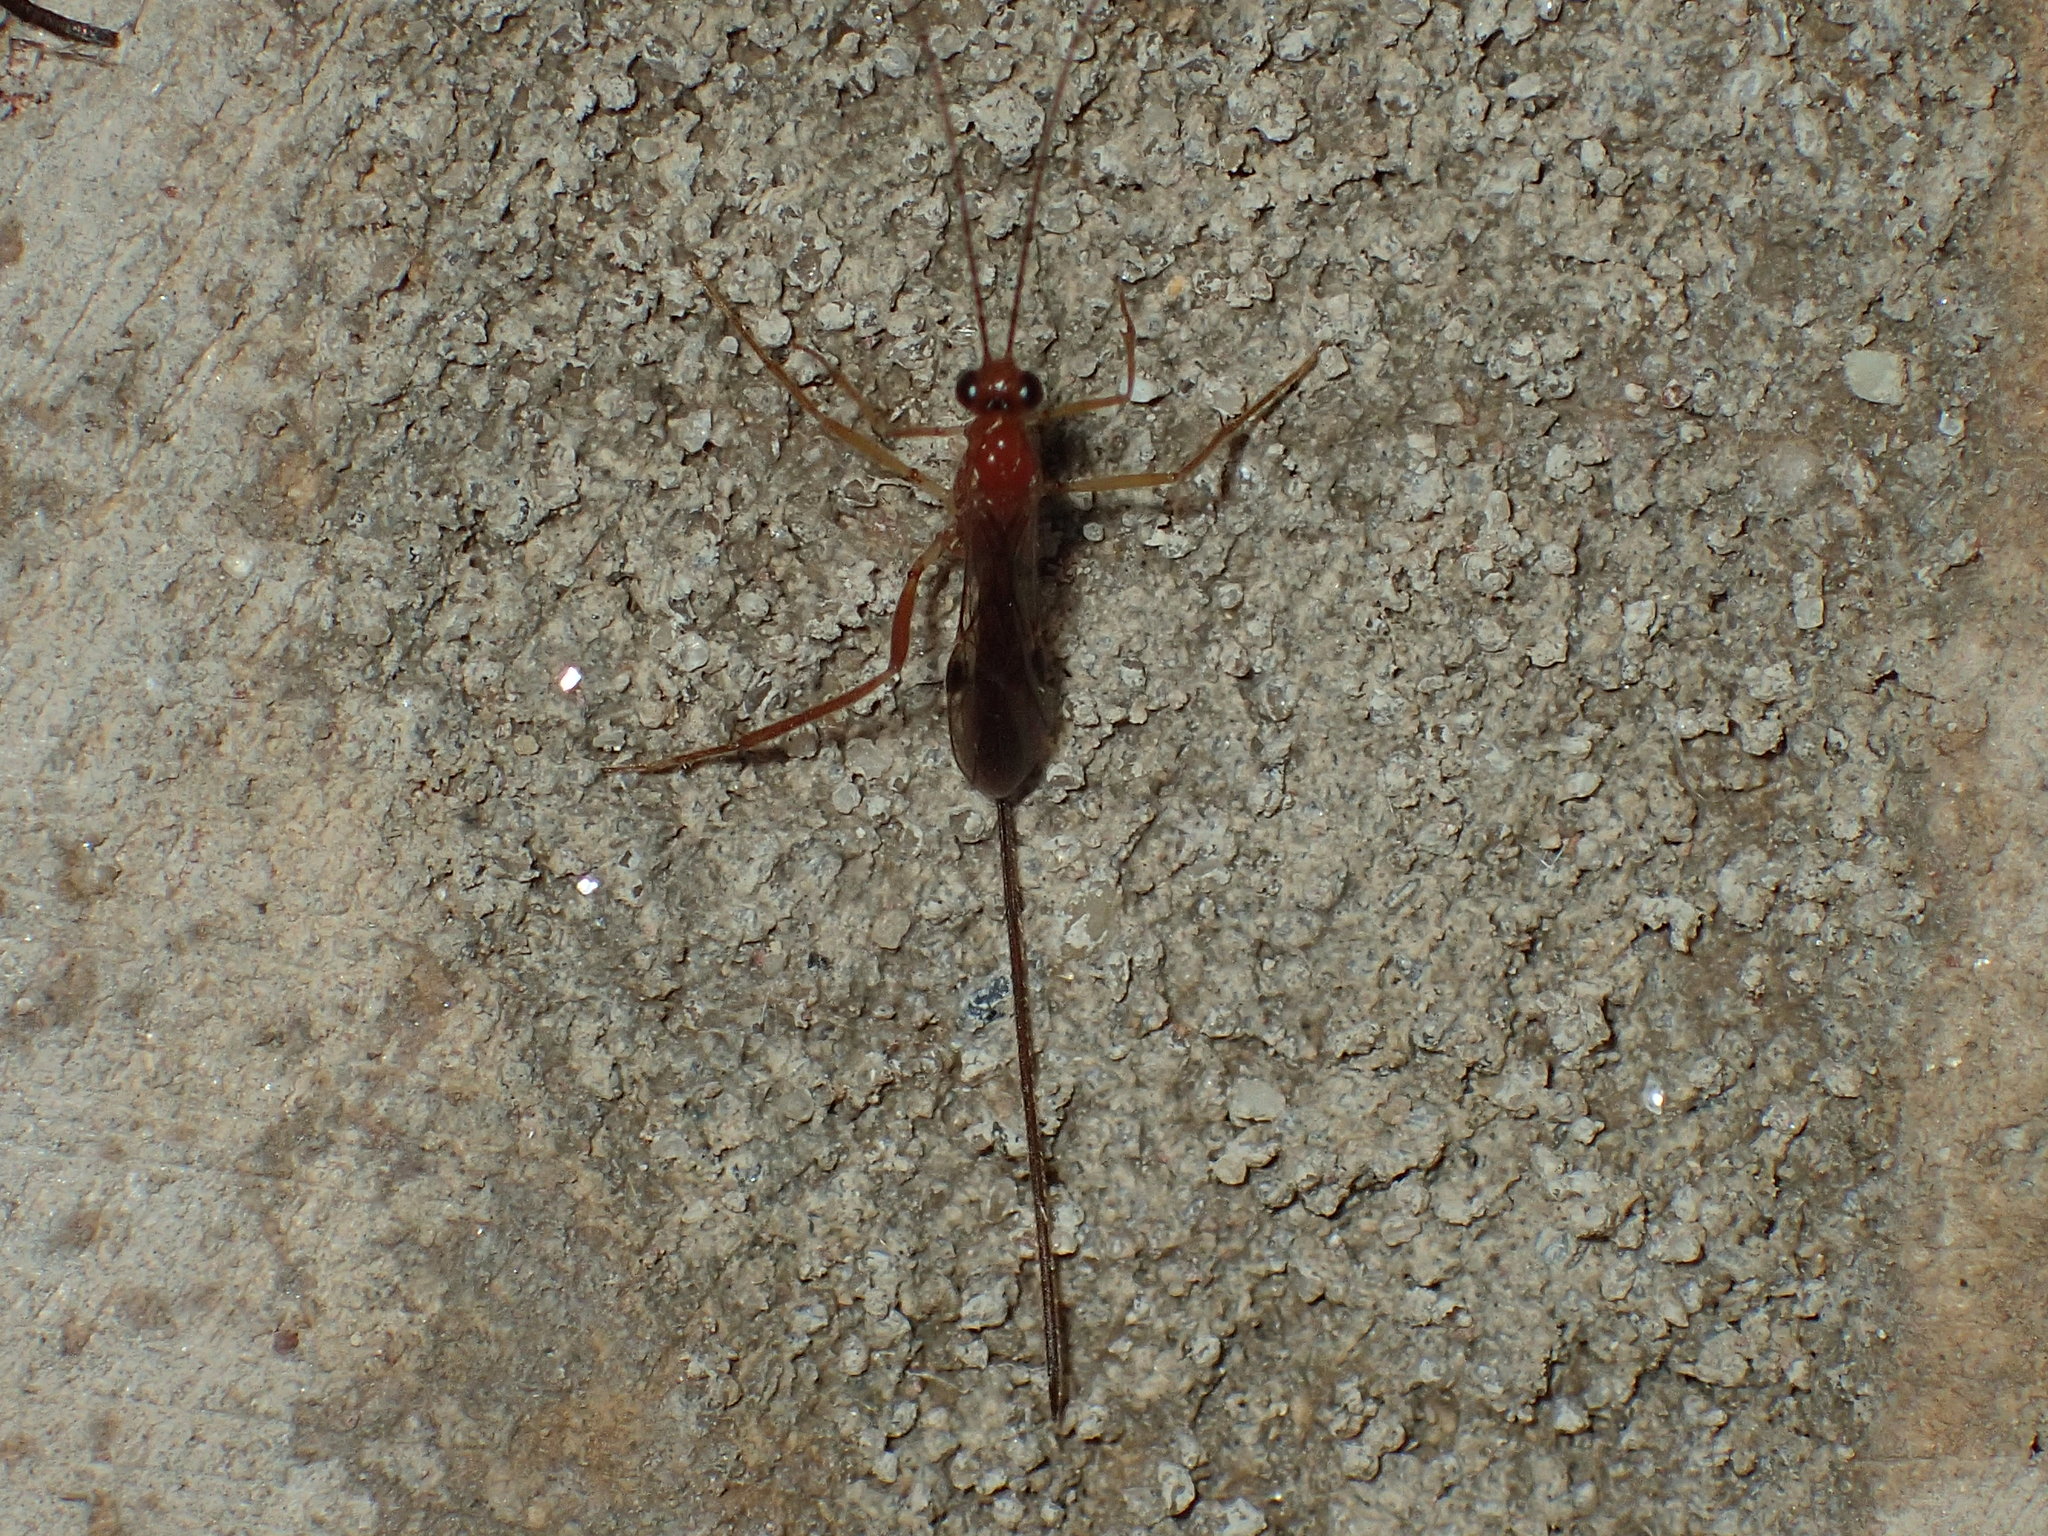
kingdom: Animalia
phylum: Arthropoda
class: Insecta
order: Hymenoptera
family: Braconidae
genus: Macrocentrus
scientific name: Macrocentrus
